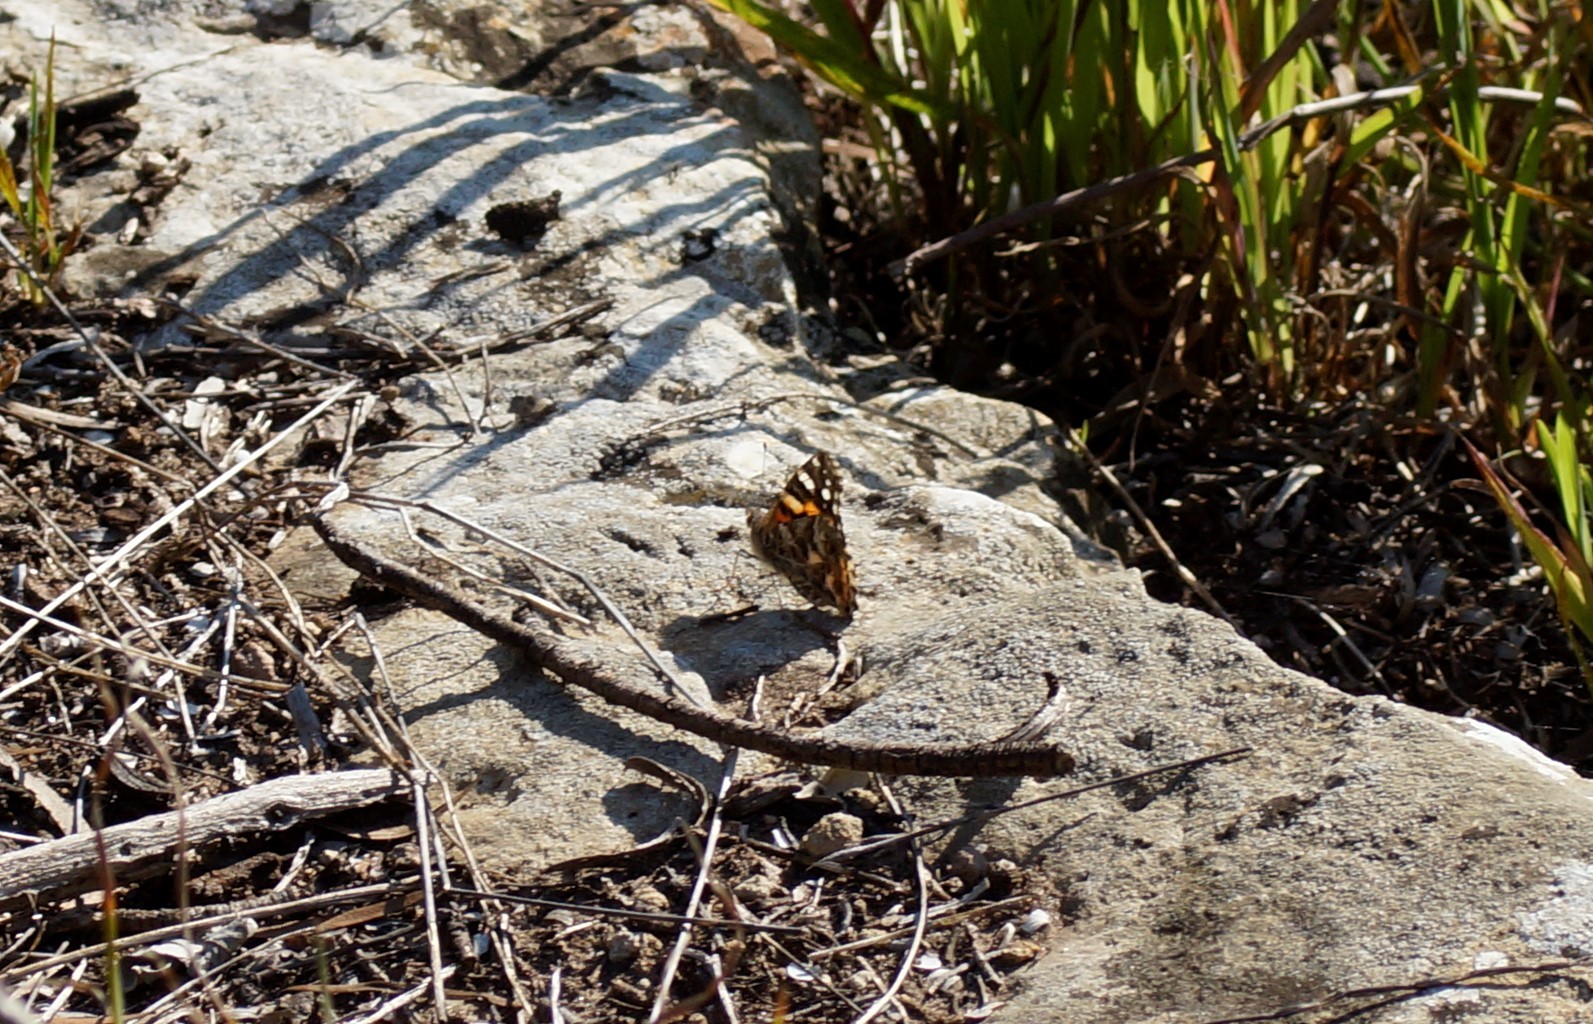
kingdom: Animalia
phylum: Arthropoda
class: Insecta
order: Lepidoptera
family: Nymphalidae
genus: Vanessa
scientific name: Vanessa kershawi
